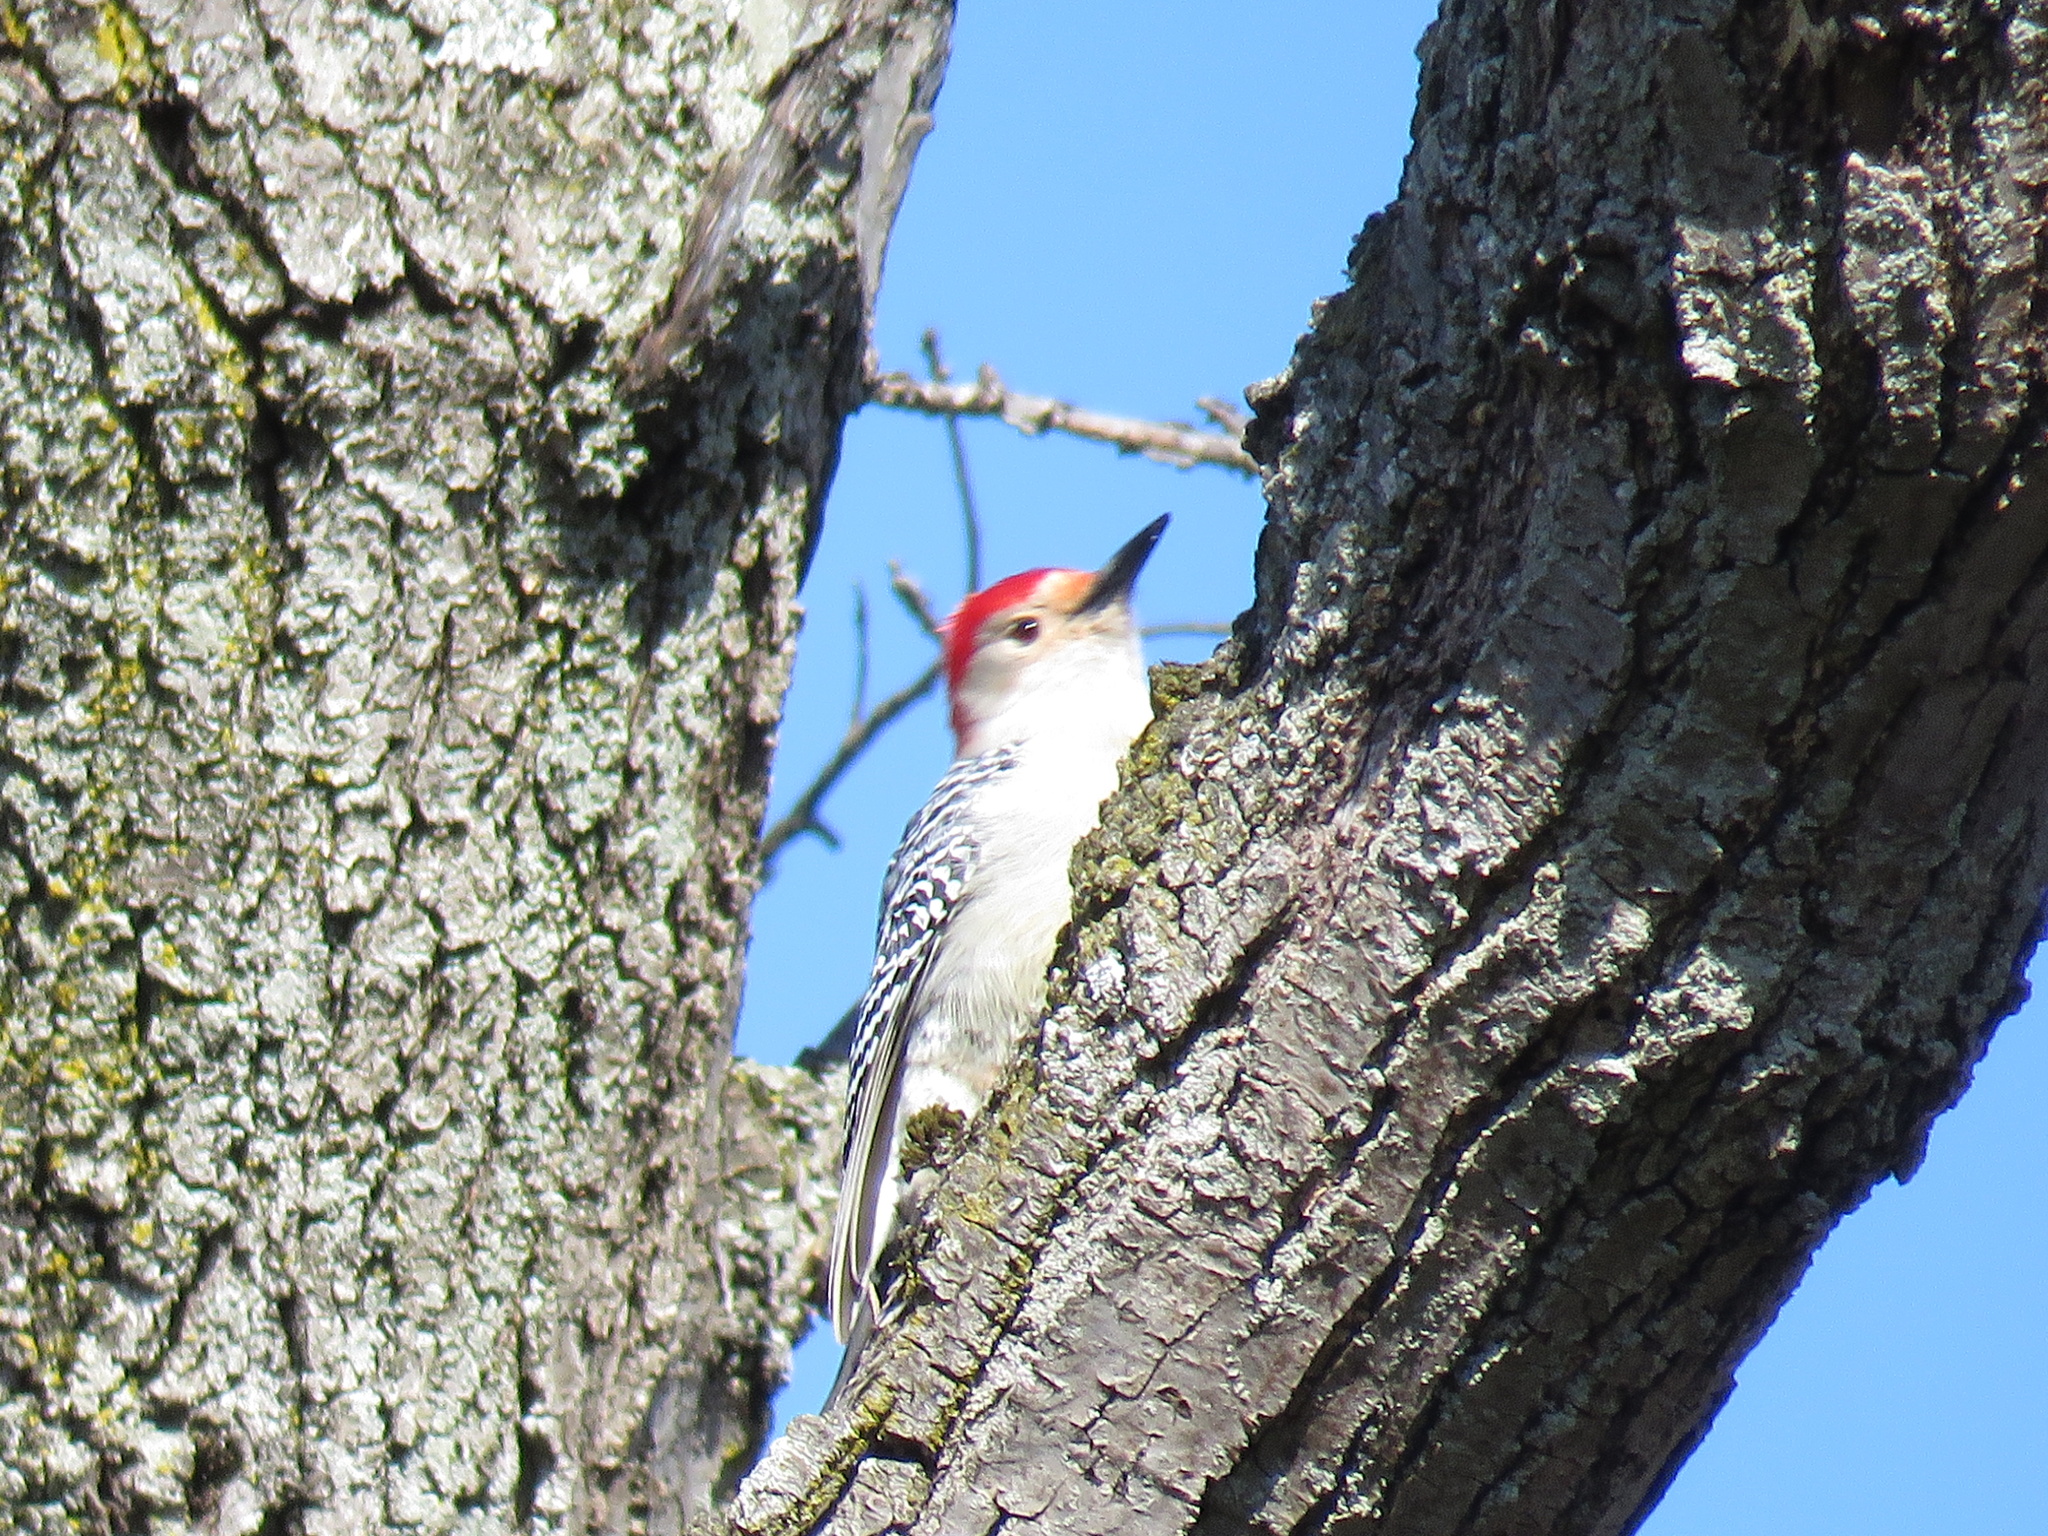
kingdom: Animalia
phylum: Chordata
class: Aves
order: Piciformes
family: Picidae
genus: Melanerpes
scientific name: Melanerpes carolinus
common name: Red-bellied woodpecker
